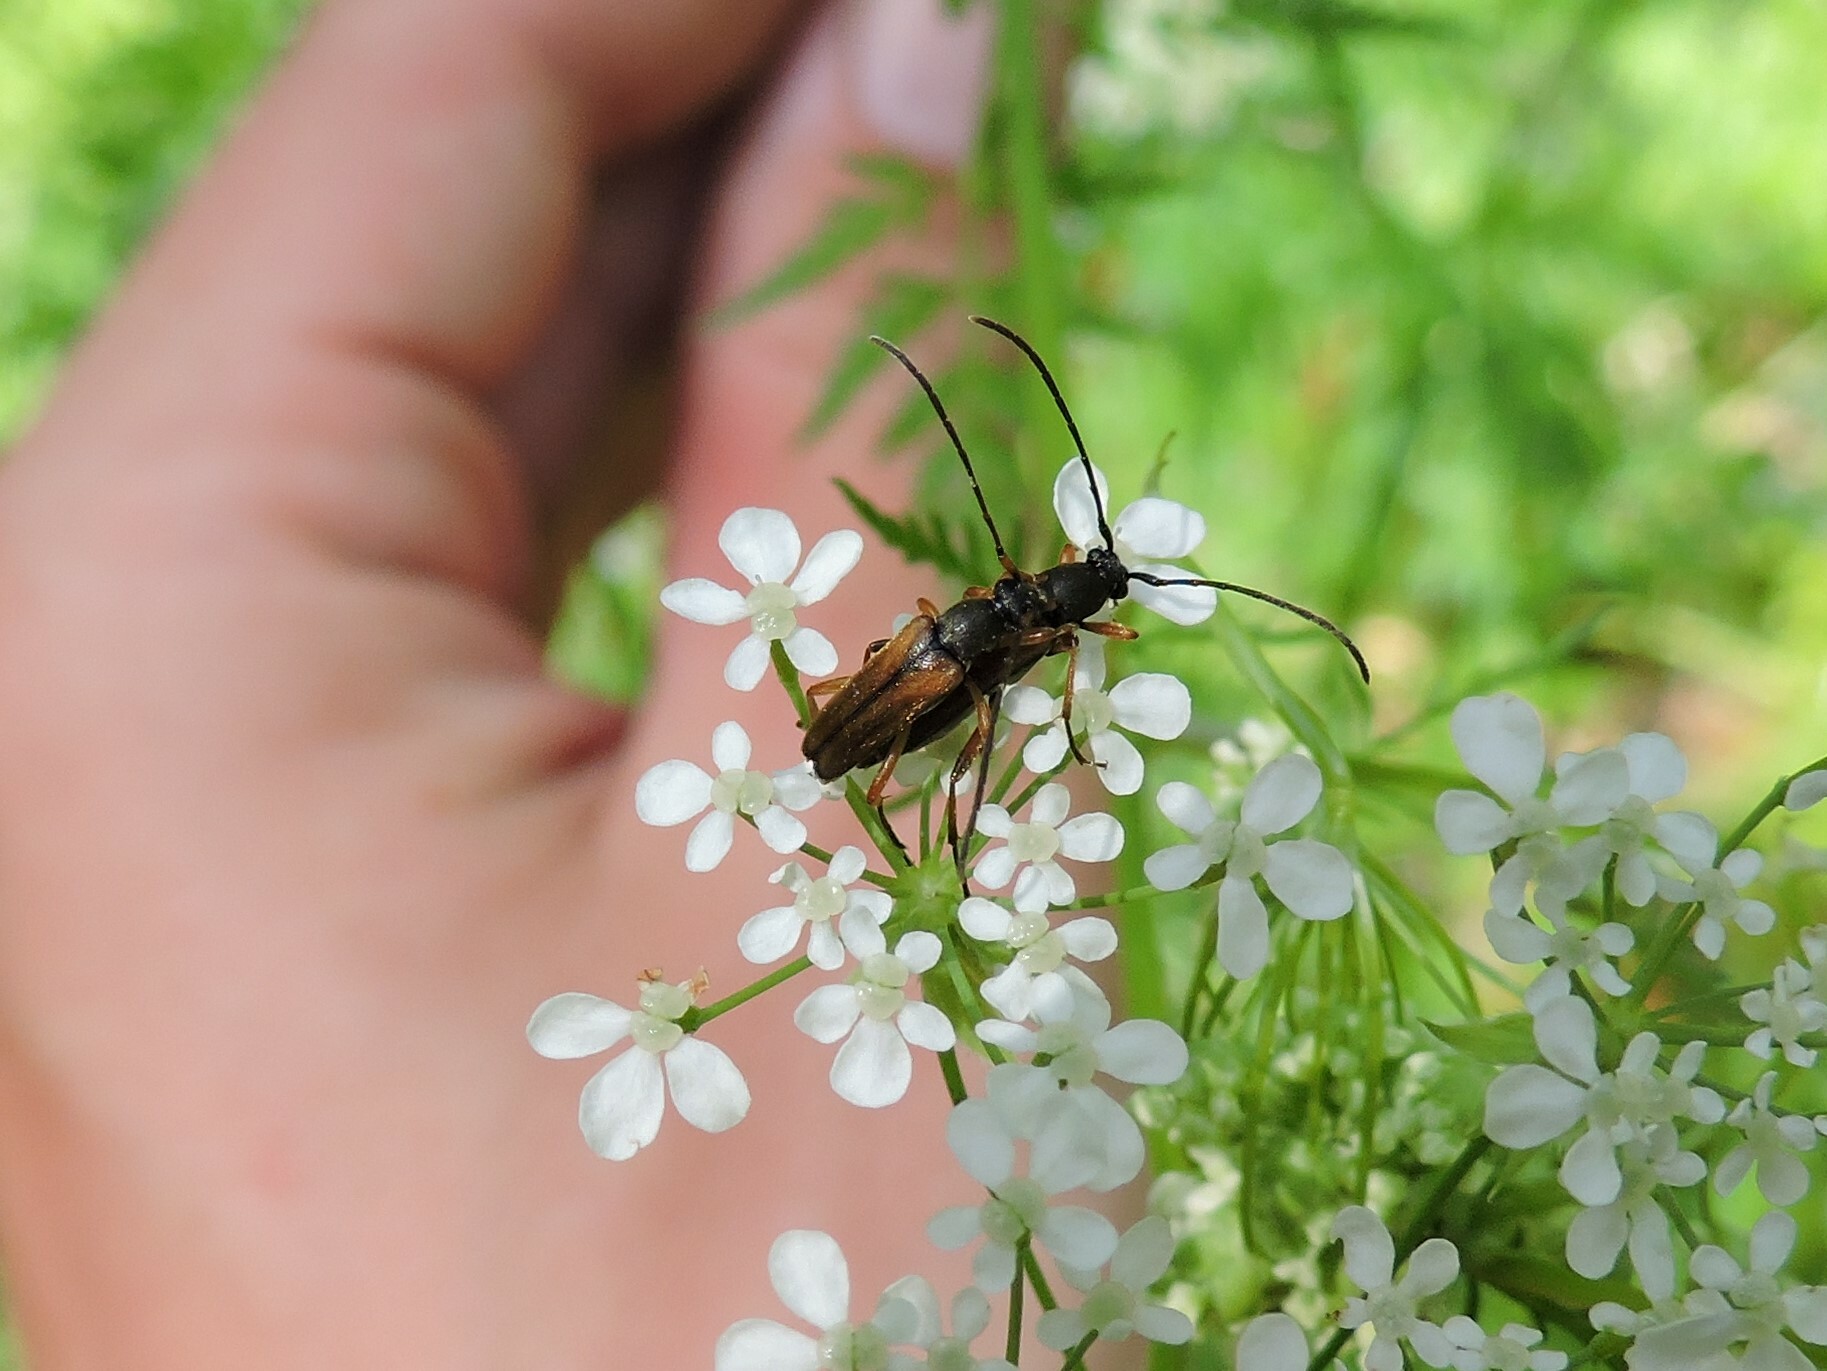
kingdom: Animalia
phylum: Arthropoda
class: Insecta
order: Coleoptera
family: Cerambycidae
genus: Alosterna
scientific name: Alosterna tabacicolor
